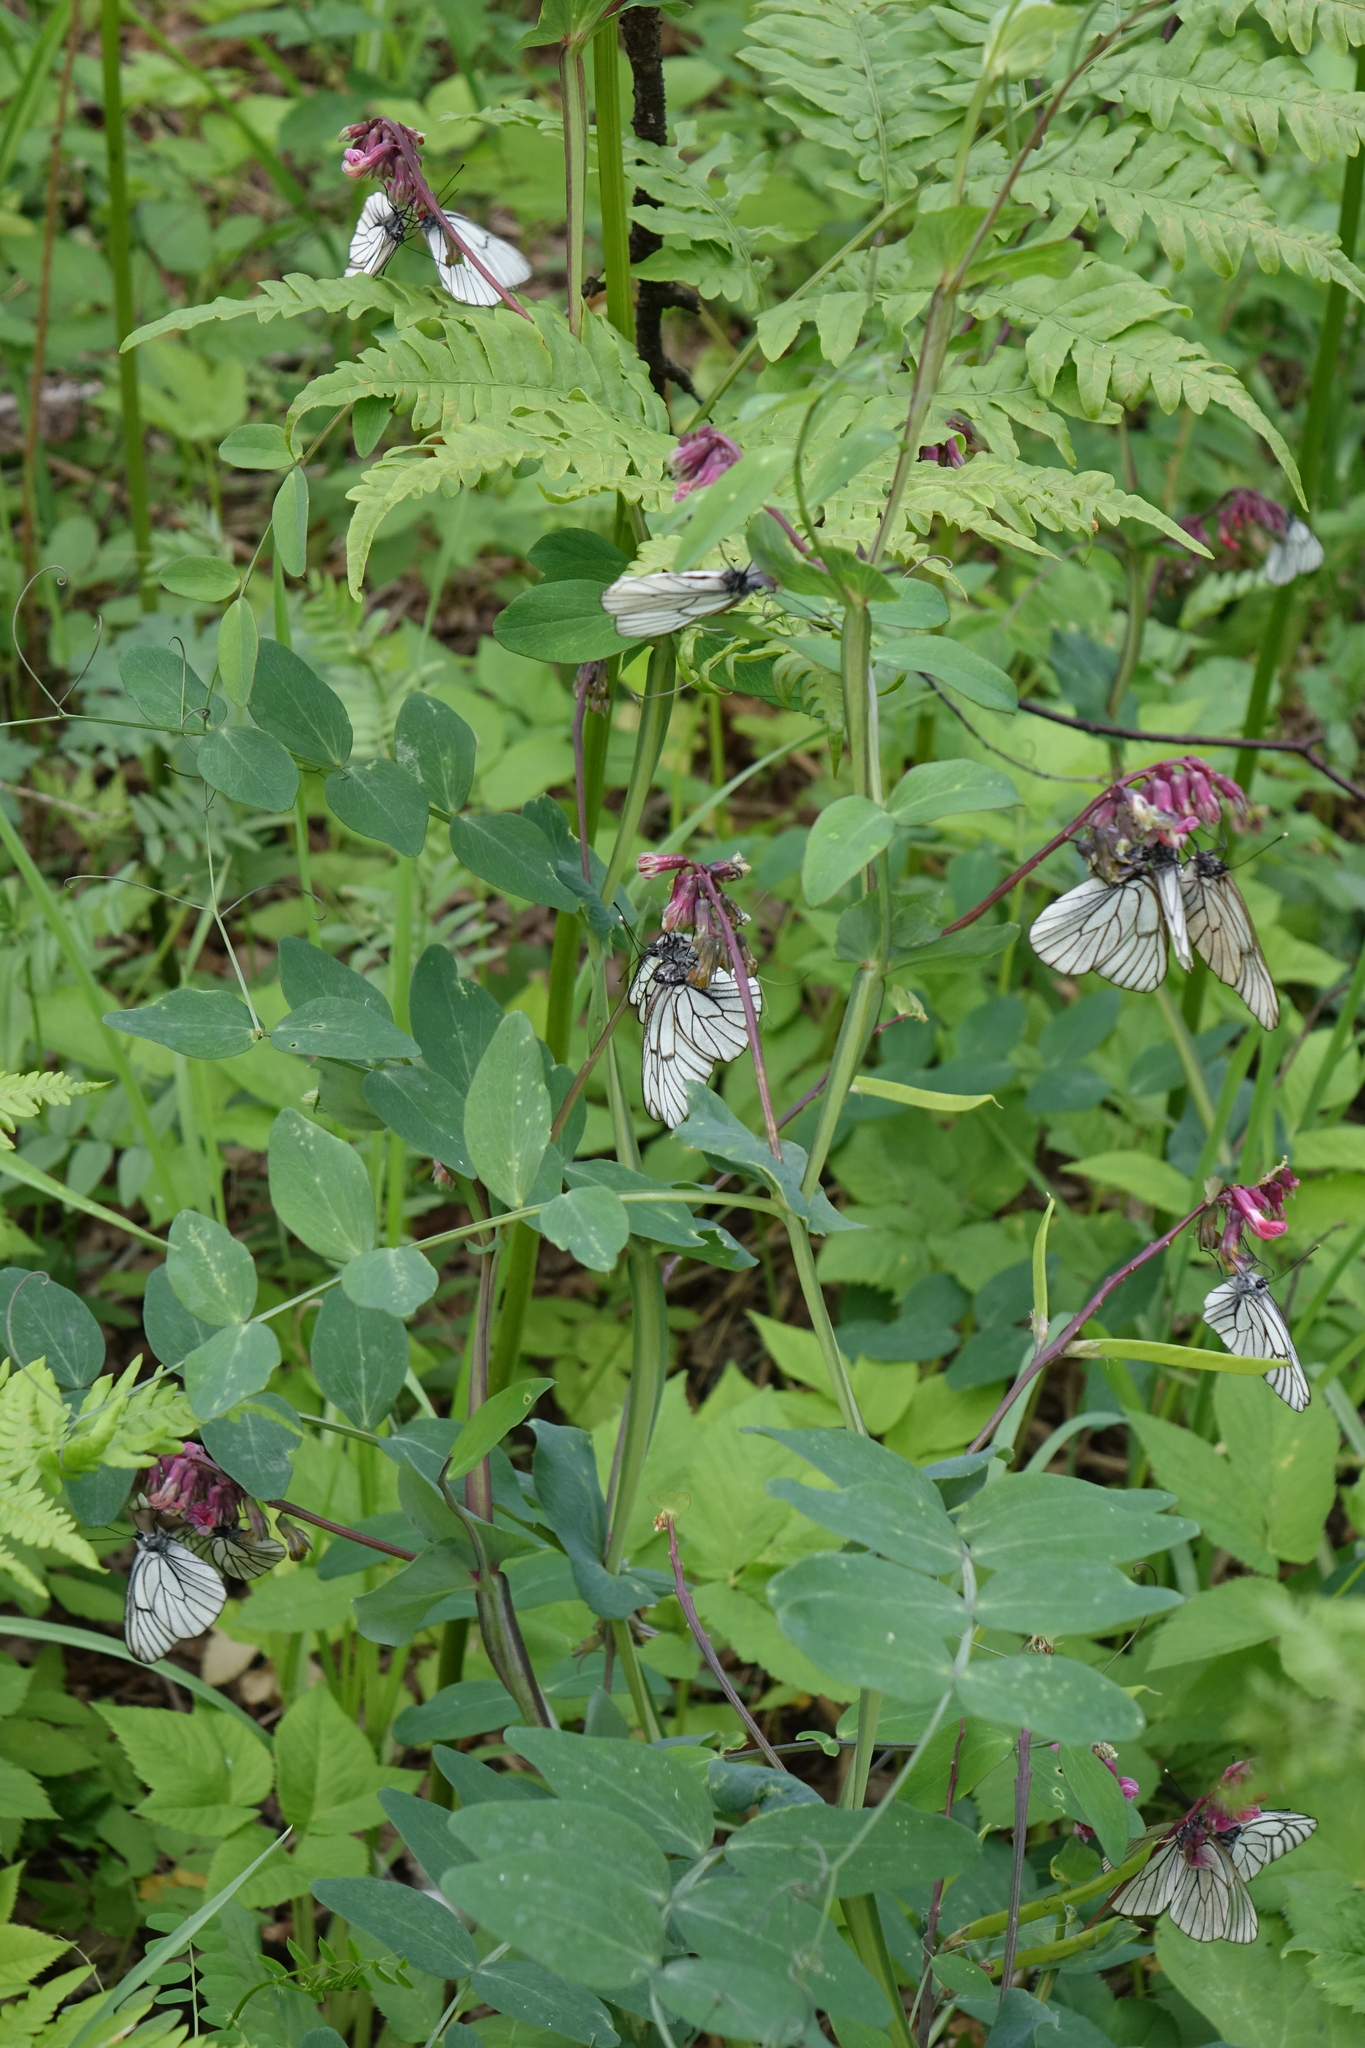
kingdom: Plantae
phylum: Tracheophyta
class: Magnoliopsida
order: Fabales
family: Fabaceae
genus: Lathyrus
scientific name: Lathyrus pisiformis
